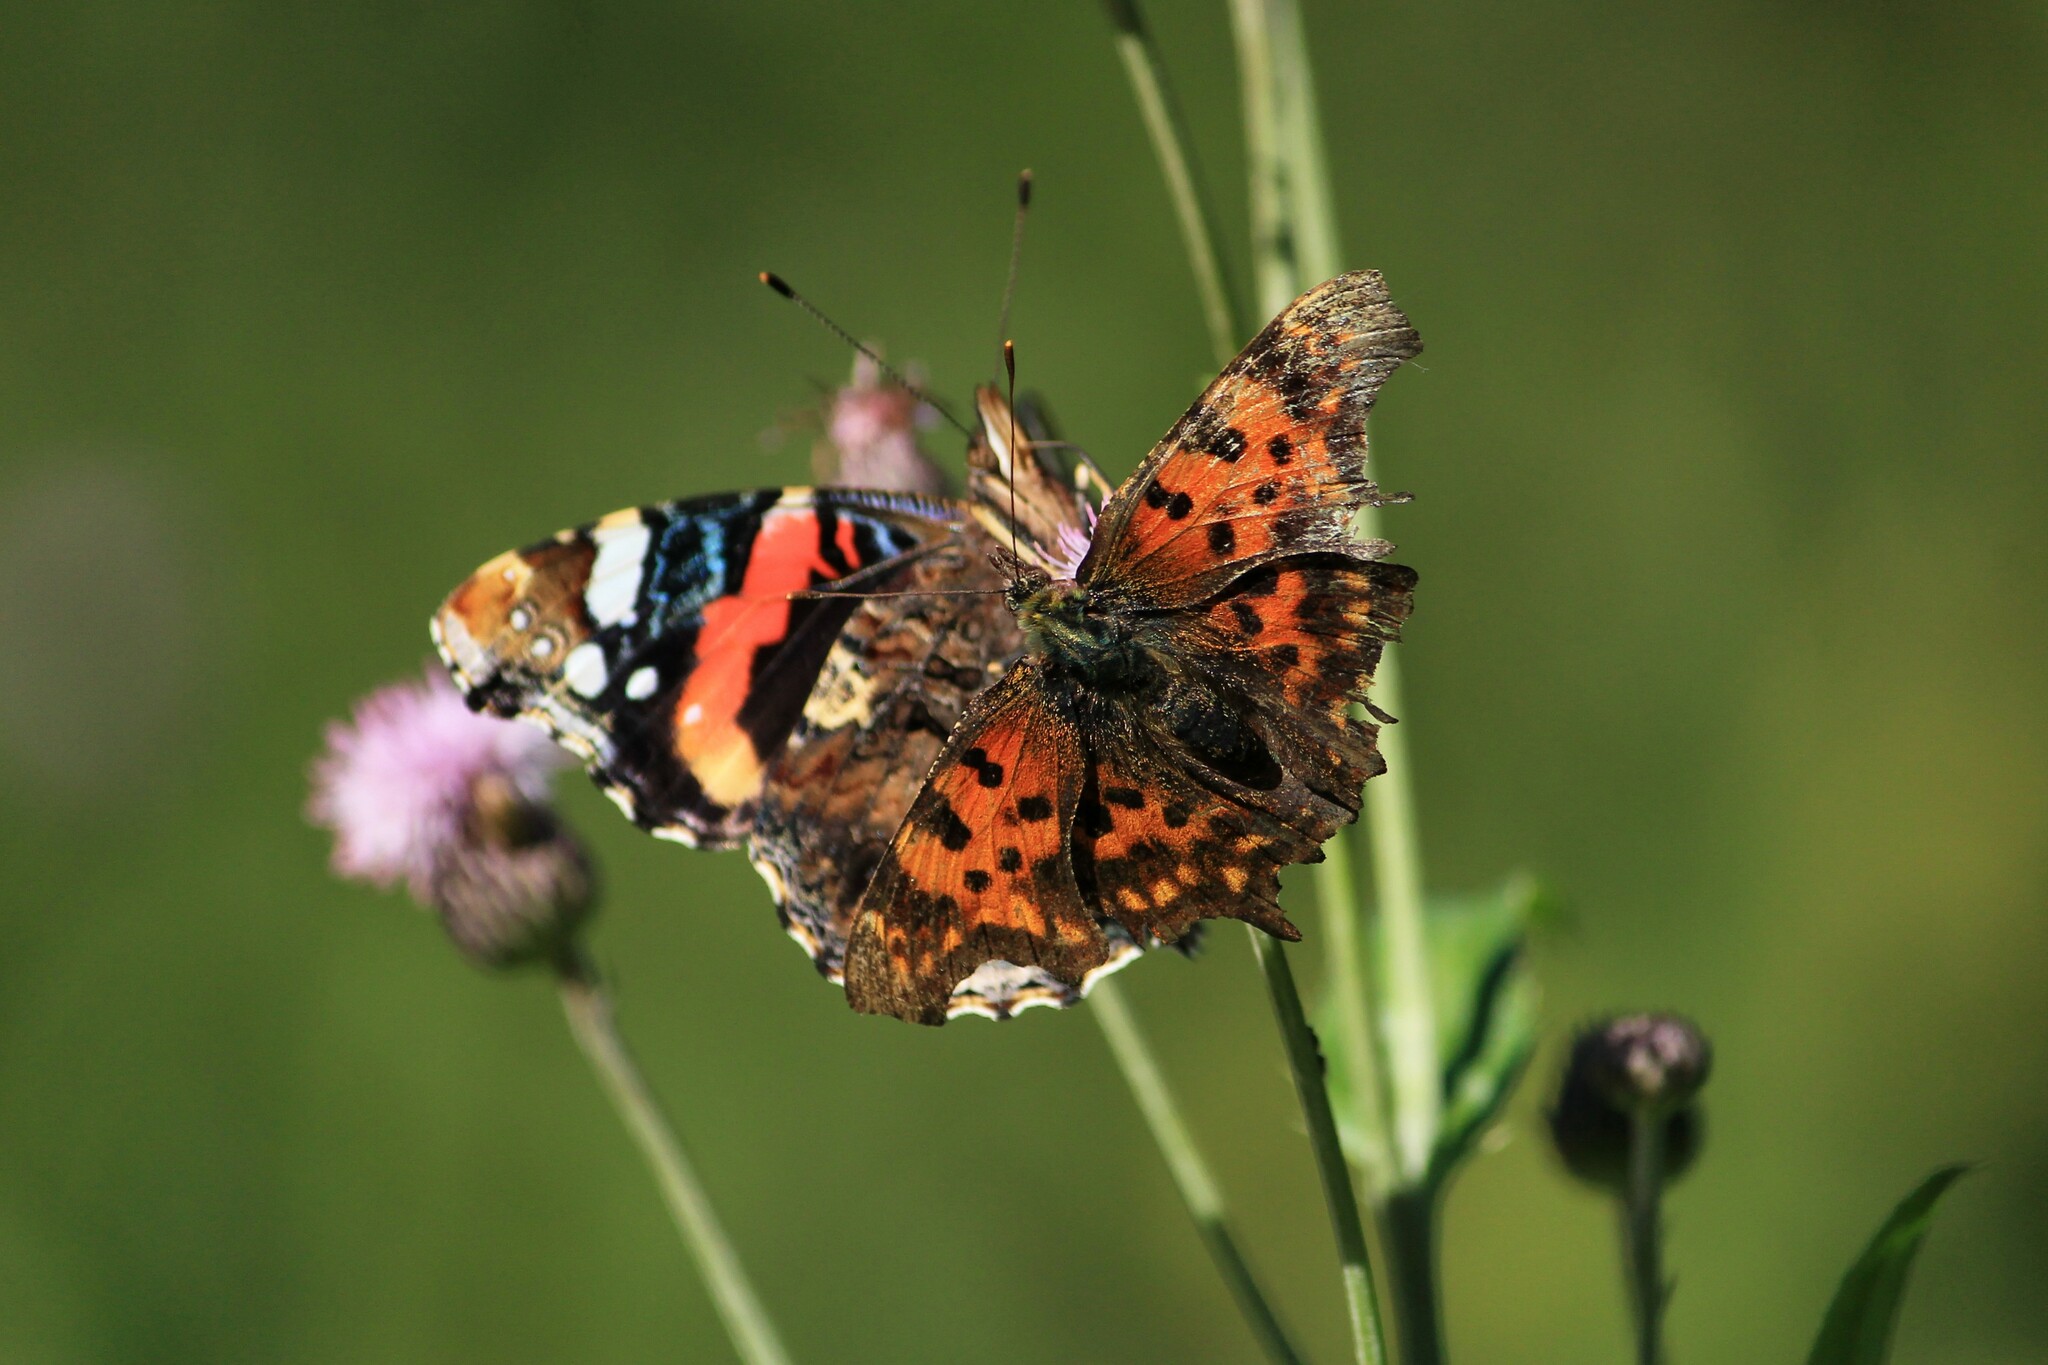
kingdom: Animalia
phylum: Arthropoda
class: Insecta
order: Lepidoptera
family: Nymphalidae
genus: Polygonia
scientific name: Polygonia c-album
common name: Comma
